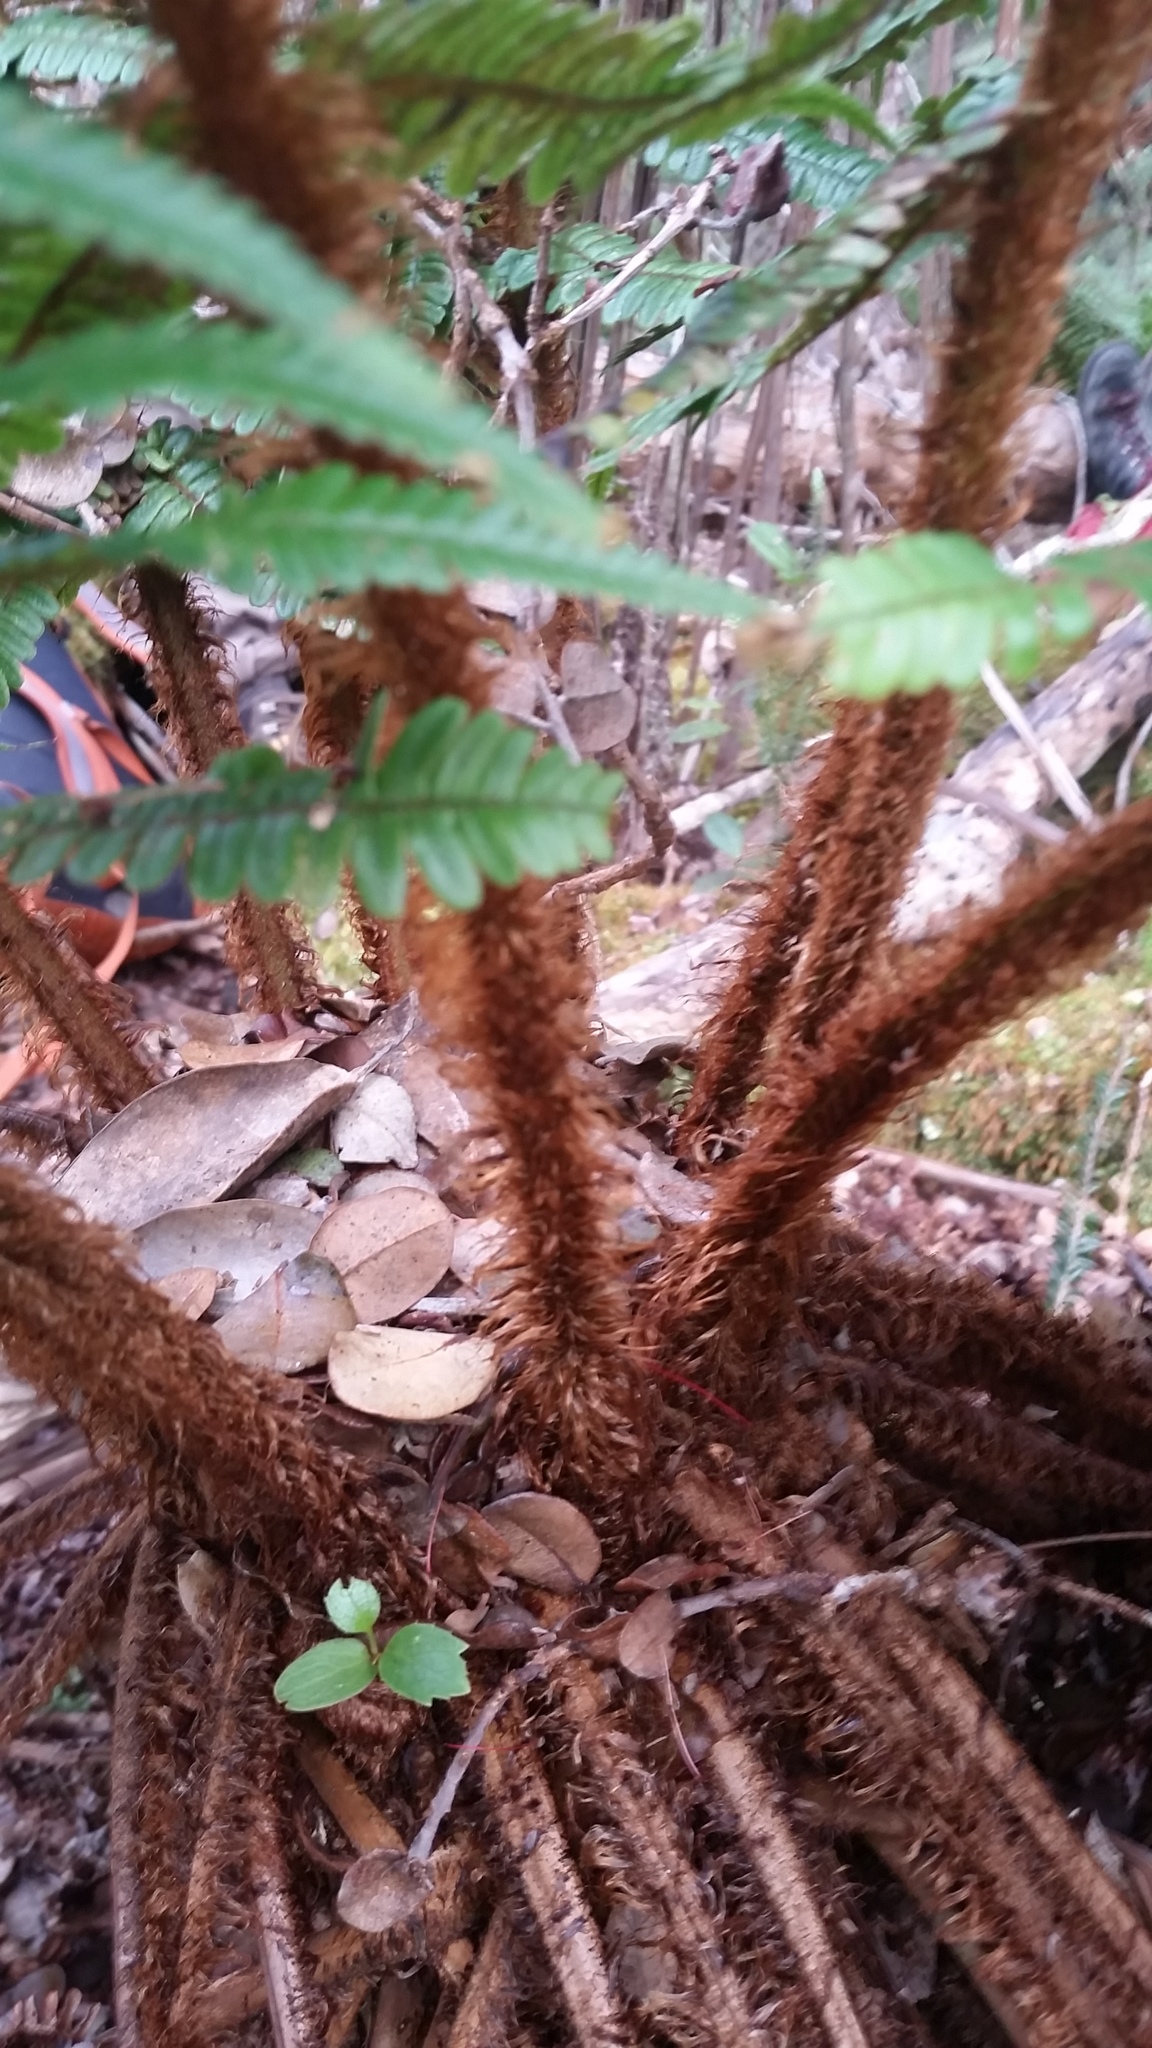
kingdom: Plantae
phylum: Tracheophyta
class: Polypodiopsida
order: Polypodiales
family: Dryopteridaceae
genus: Dryopteris
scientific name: Dryopteris wallichiana
